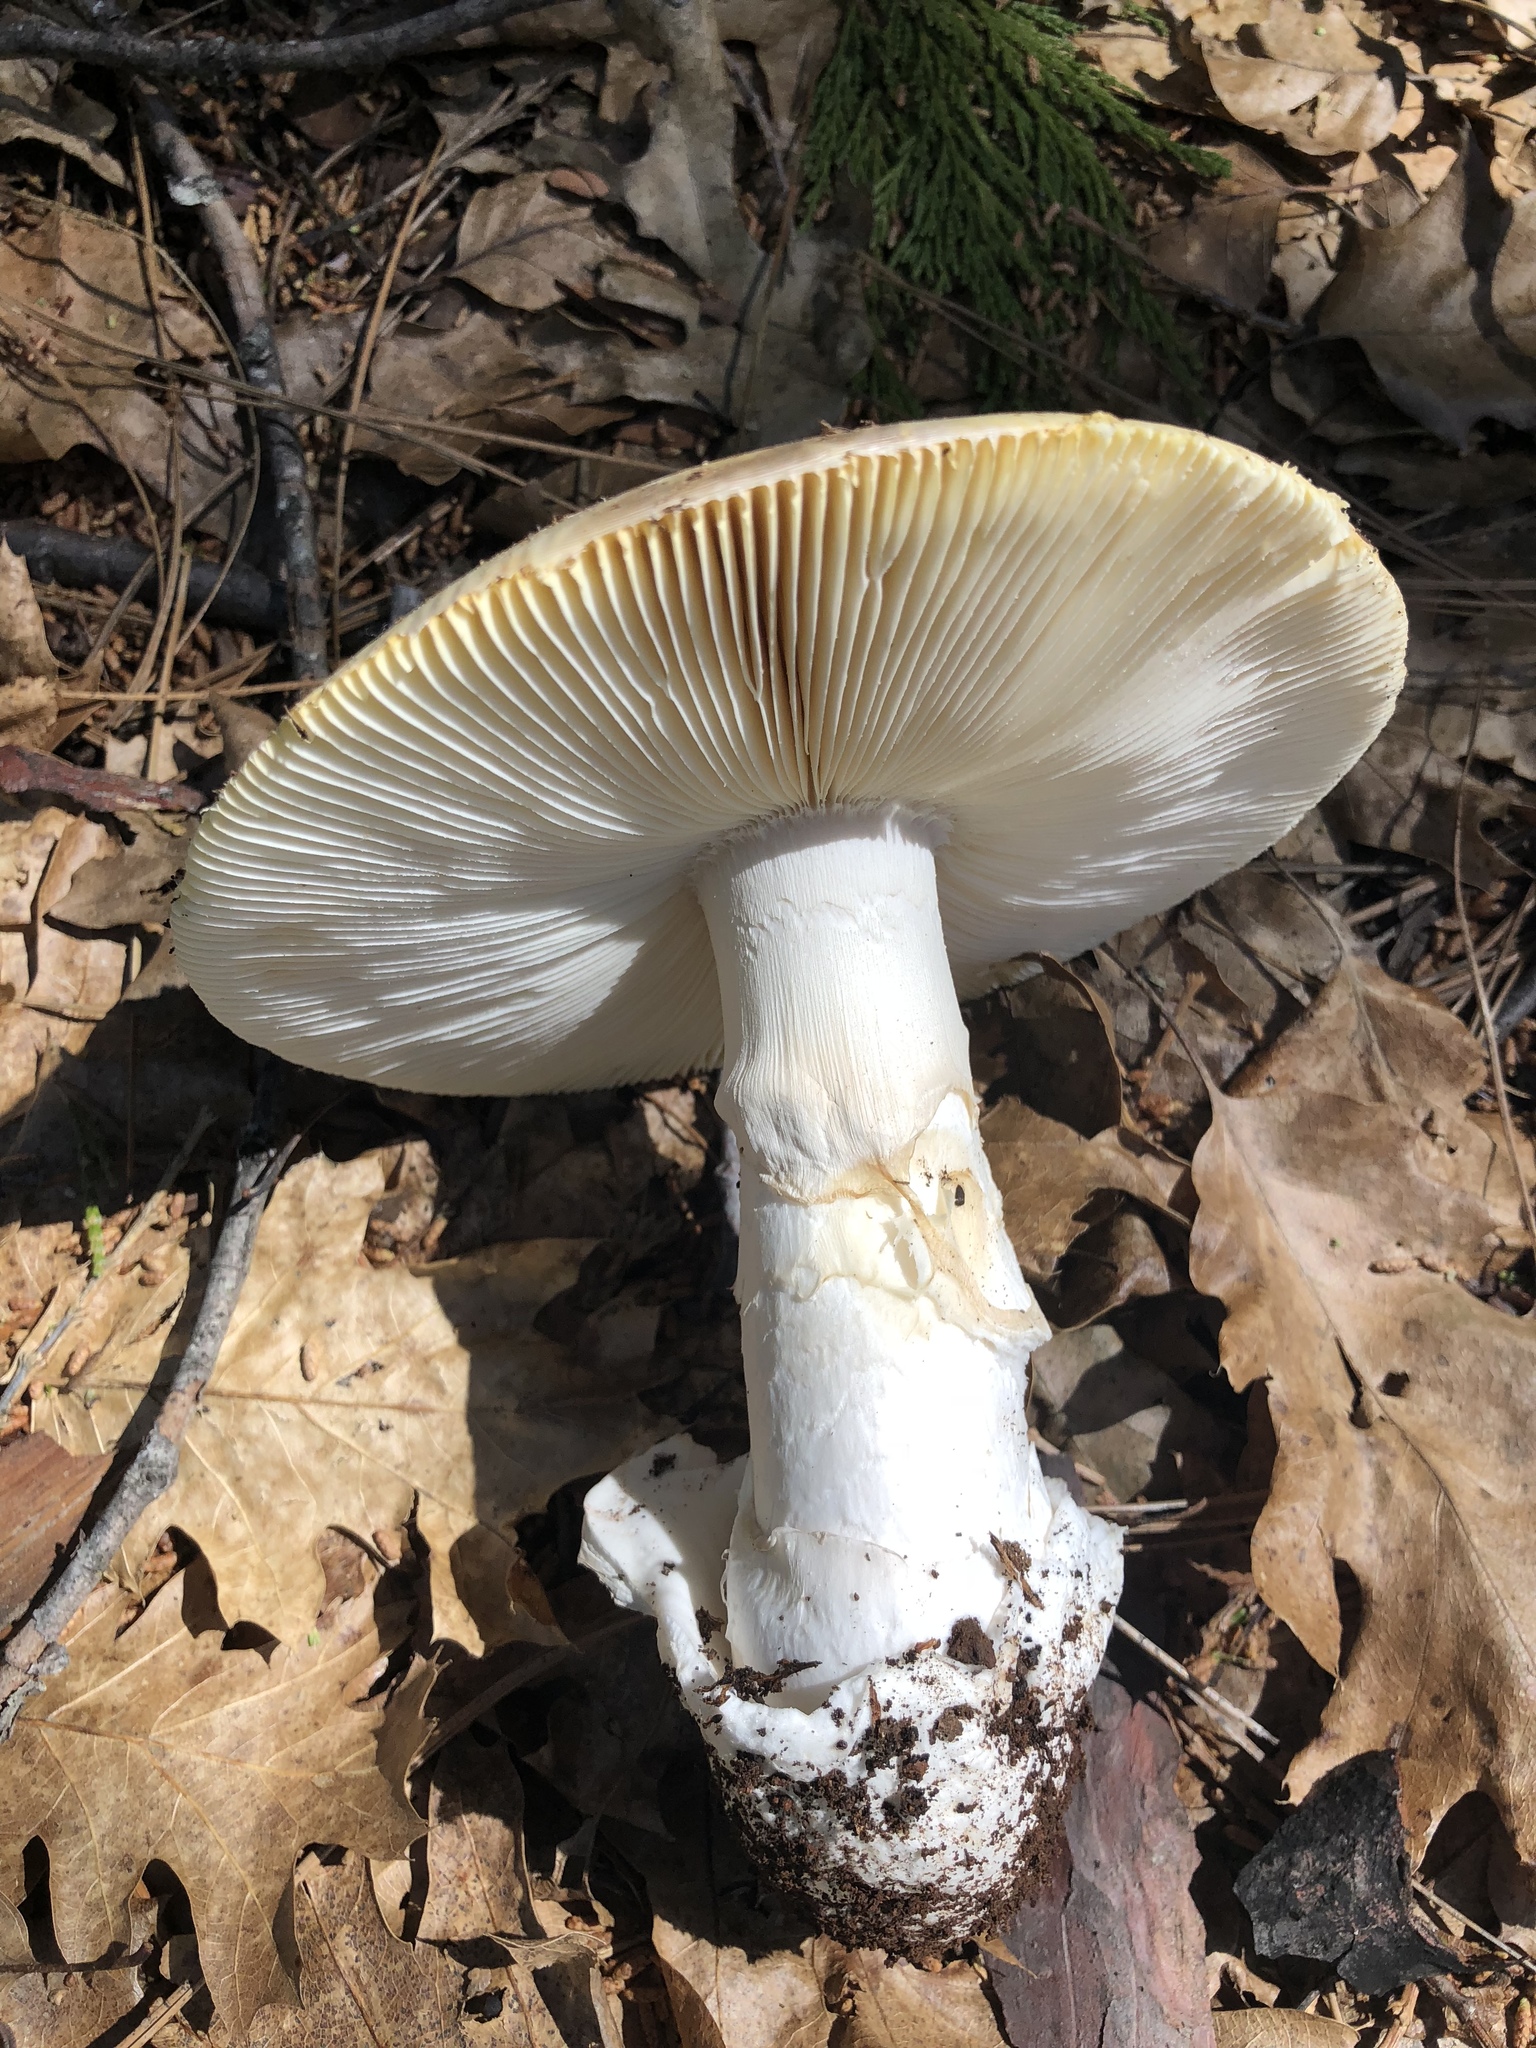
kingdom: Fungi
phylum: Basidiomycota
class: Agaricomycetes
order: Agaricales
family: Amanitaceae
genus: Amanita
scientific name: Amanita vernicoccora
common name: Spring coccora
